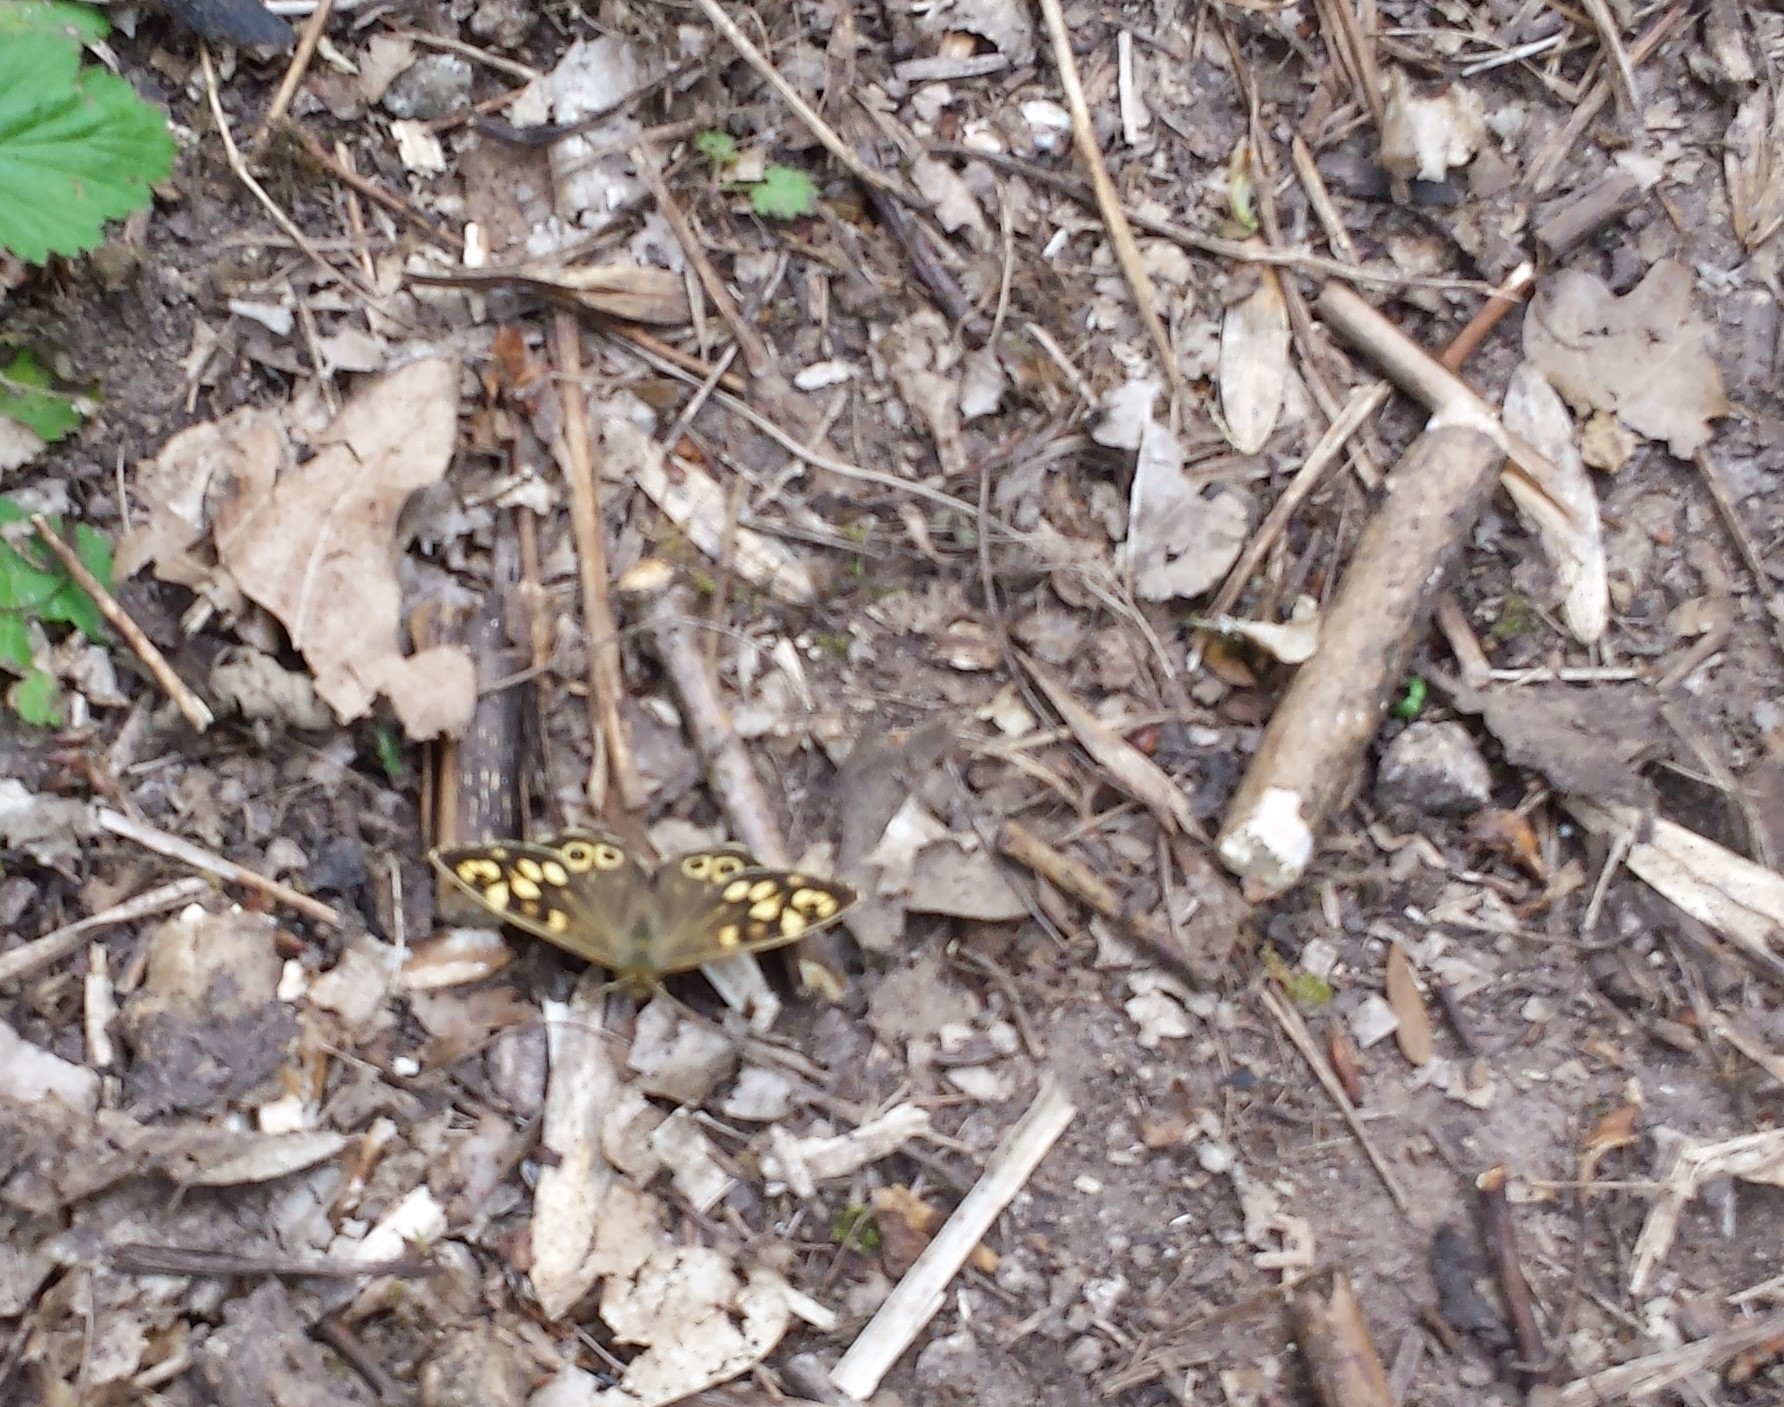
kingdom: Animalia
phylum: Arthropoda
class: Insecta
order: Lepidoptera
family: Nymphalidae
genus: Pararge
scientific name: Pararge aegeria
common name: Speckled wood
